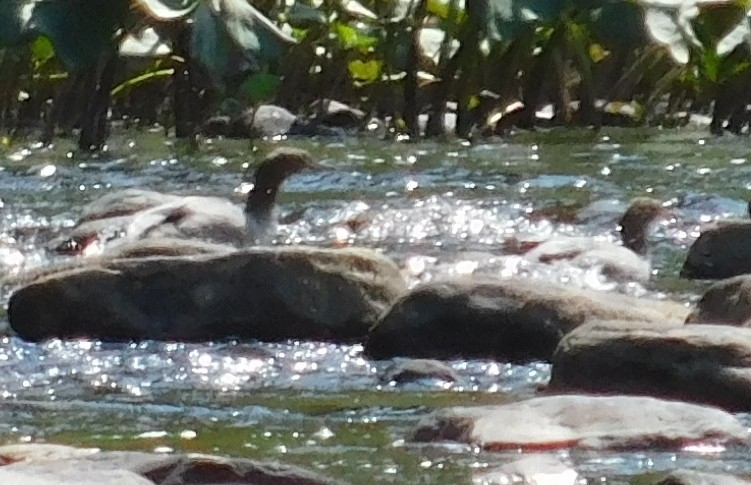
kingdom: Animalia
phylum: Chordata
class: Aves
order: Anseriformes
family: Anatidae
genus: Mergus
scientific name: Mergus merganser
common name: Common merganser
